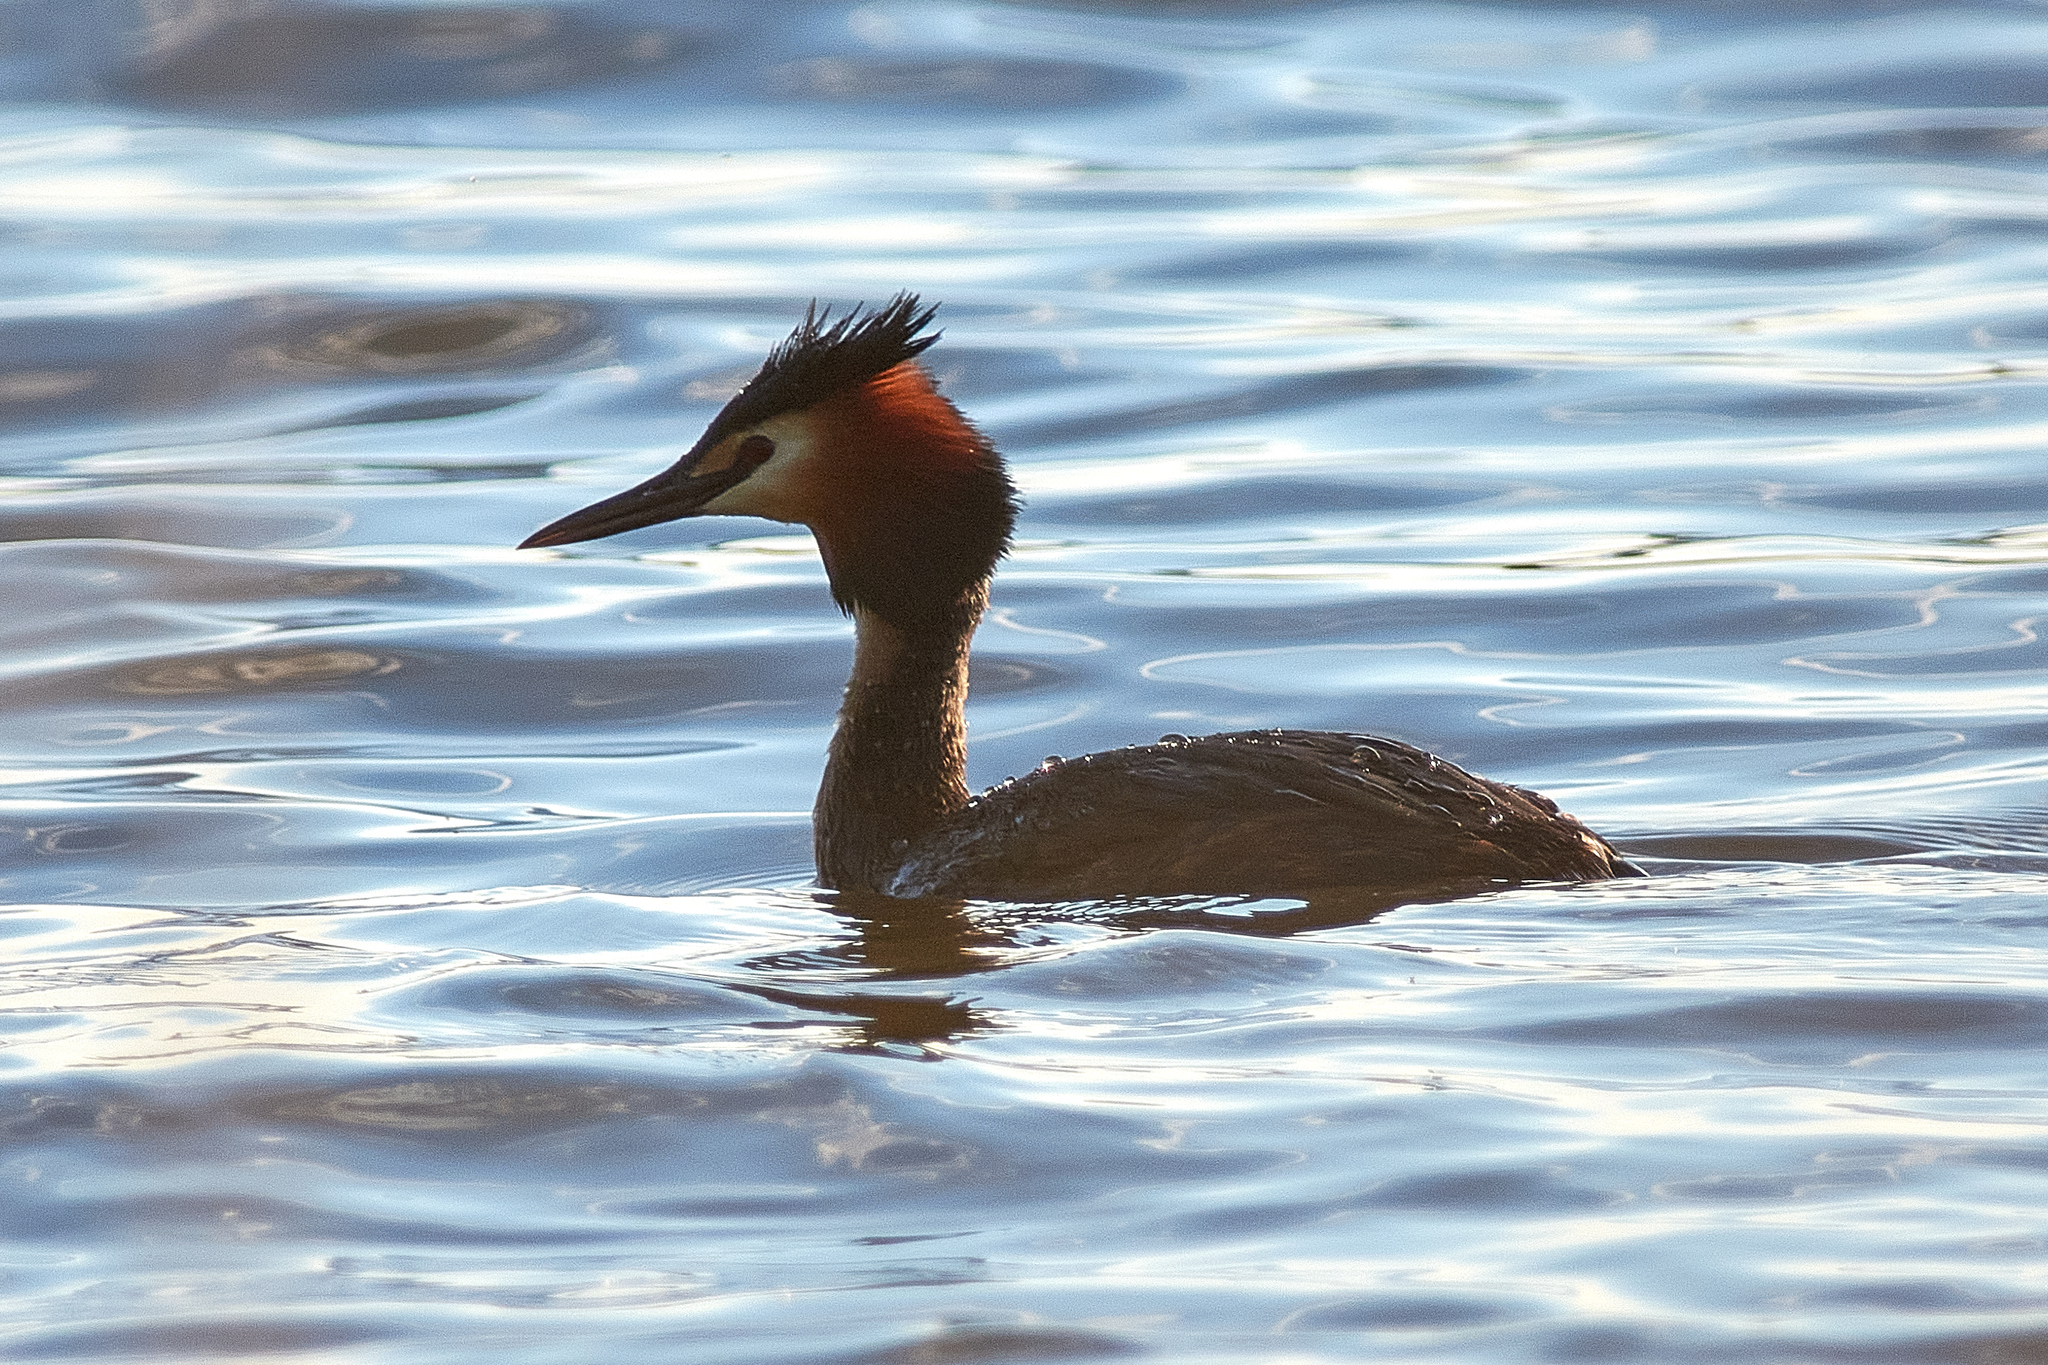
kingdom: Animalia
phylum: Chordata
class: Aves
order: Podicipediformes
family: Podicipedidae
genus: Podiceps
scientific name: Podiceps cristatus
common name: Great crested grebe
